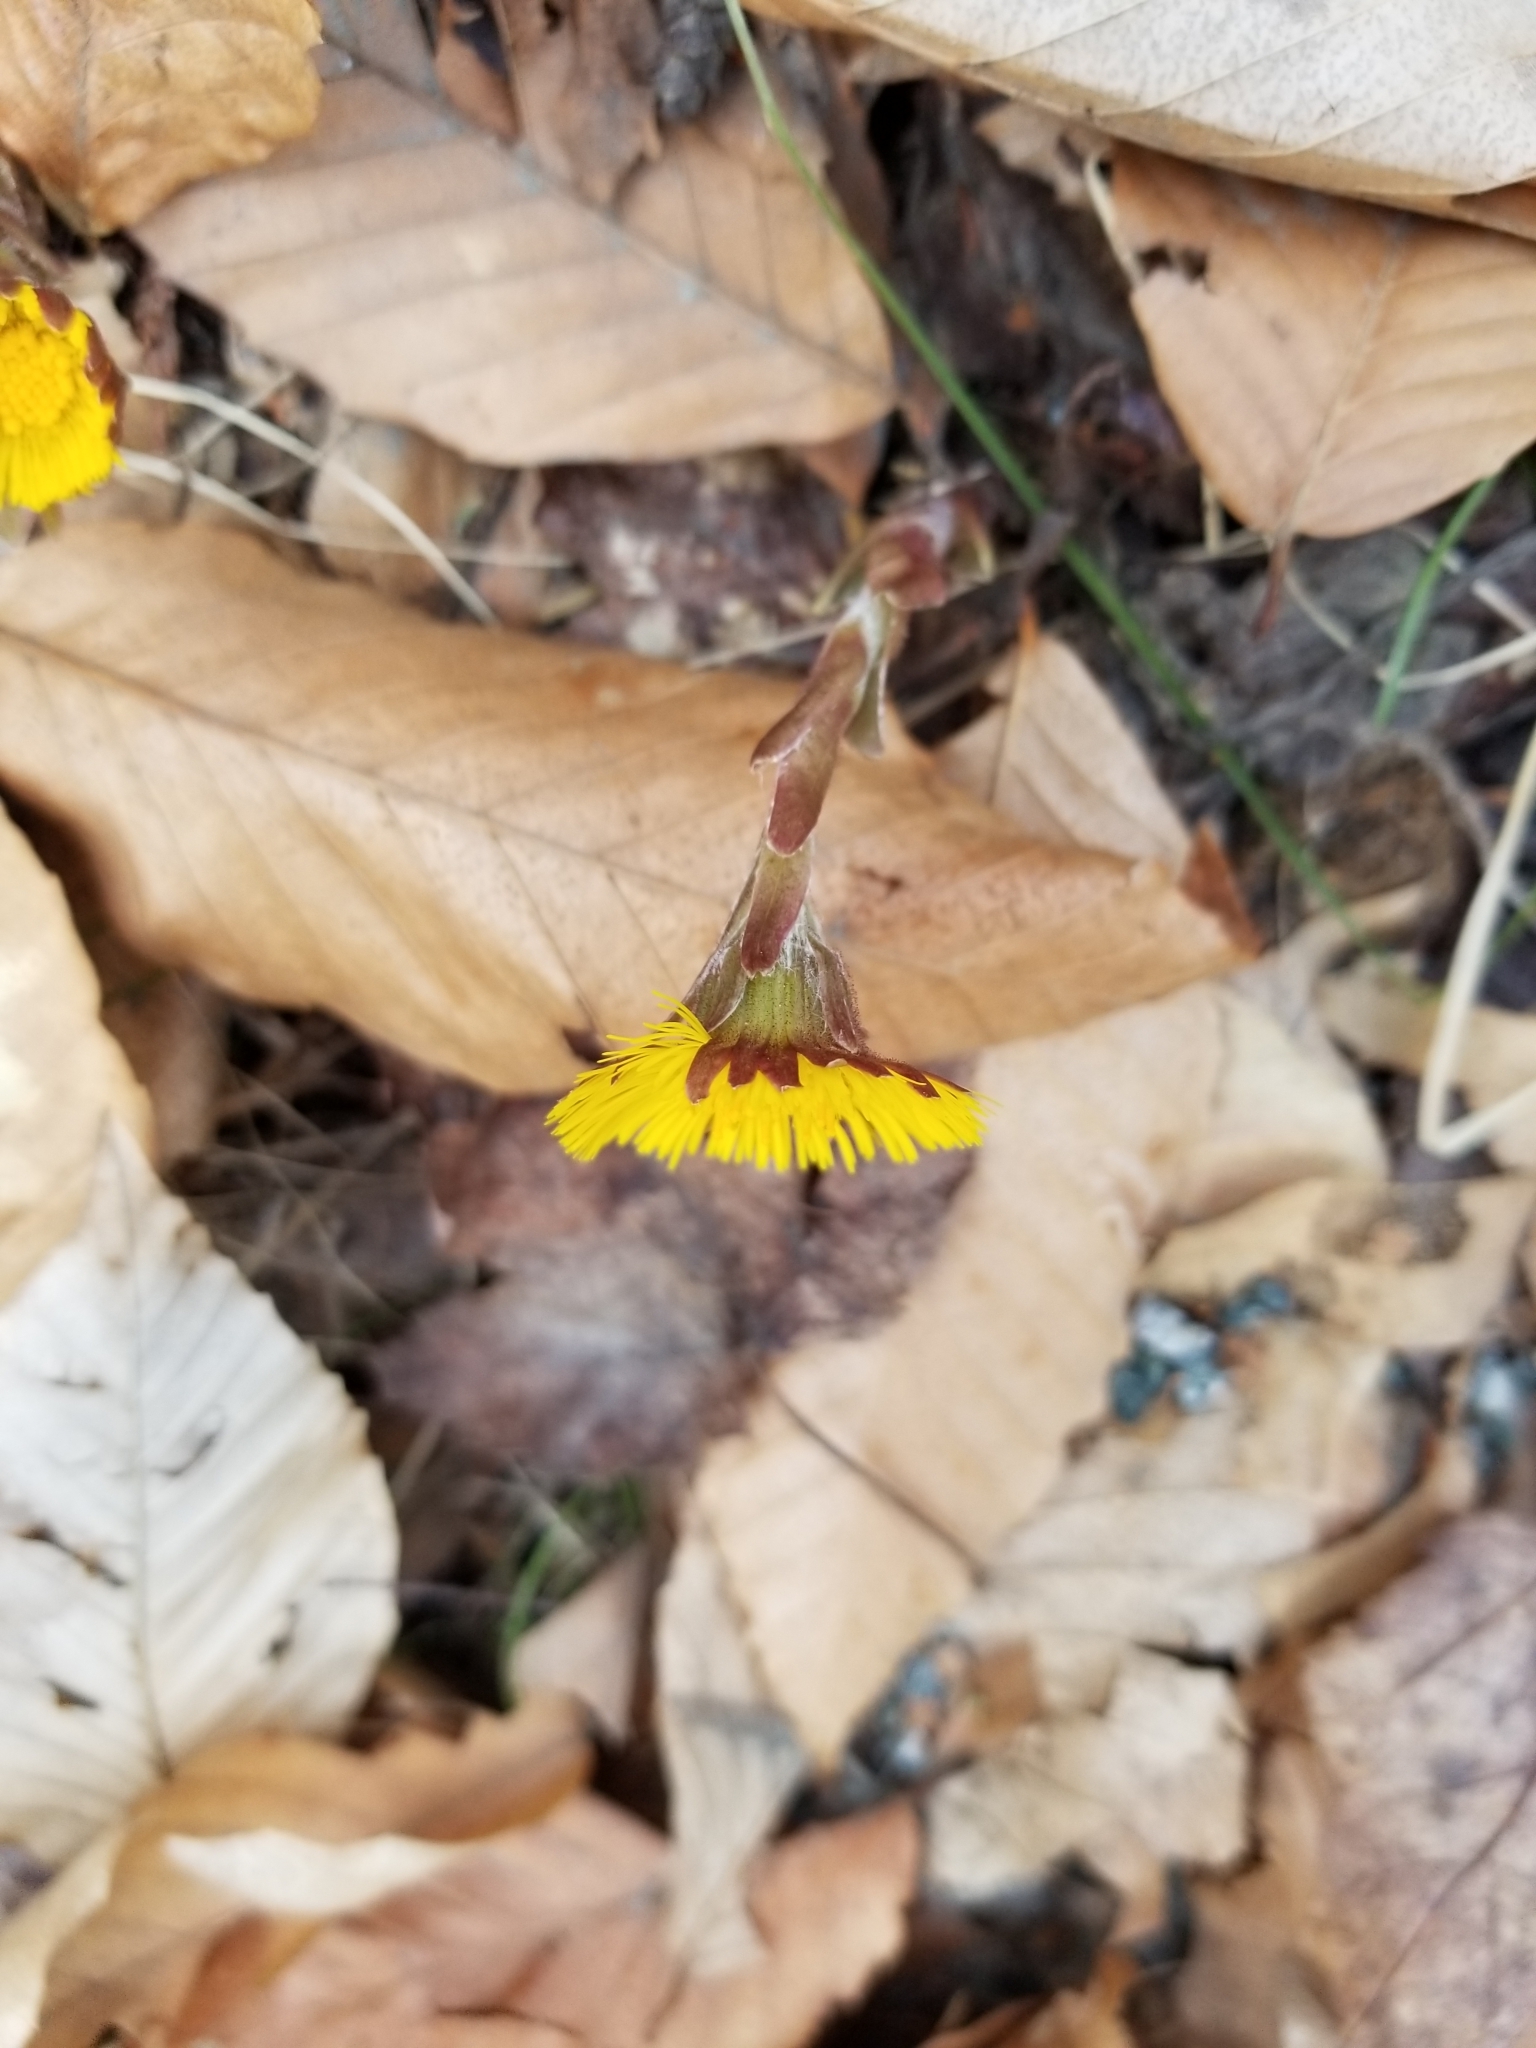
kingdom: Plantae
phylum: Tracheophyta
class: Magnoliopsida
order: Asterales
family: Asteraceae
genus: Tussilago
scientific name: Tussilago farfara
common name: Coltsfoot
